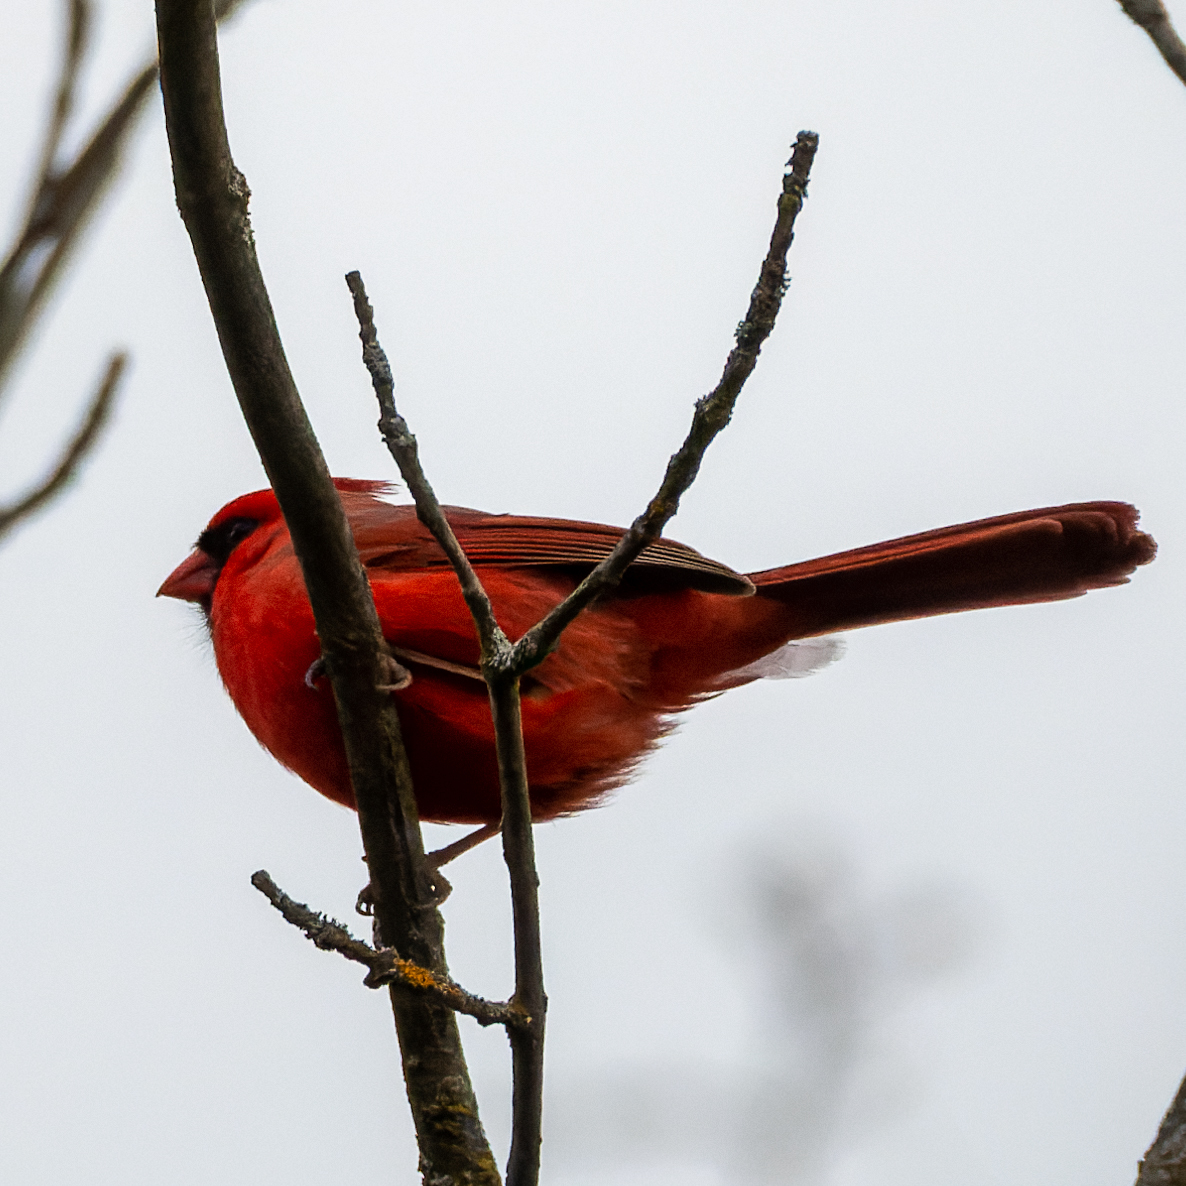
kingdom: Animalia
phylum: Chordata
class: Aves
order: Passeriformes
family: Cardinalidae
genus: Cardinalis
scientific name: Cardinalis cardinalis
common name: Northern cardinal
